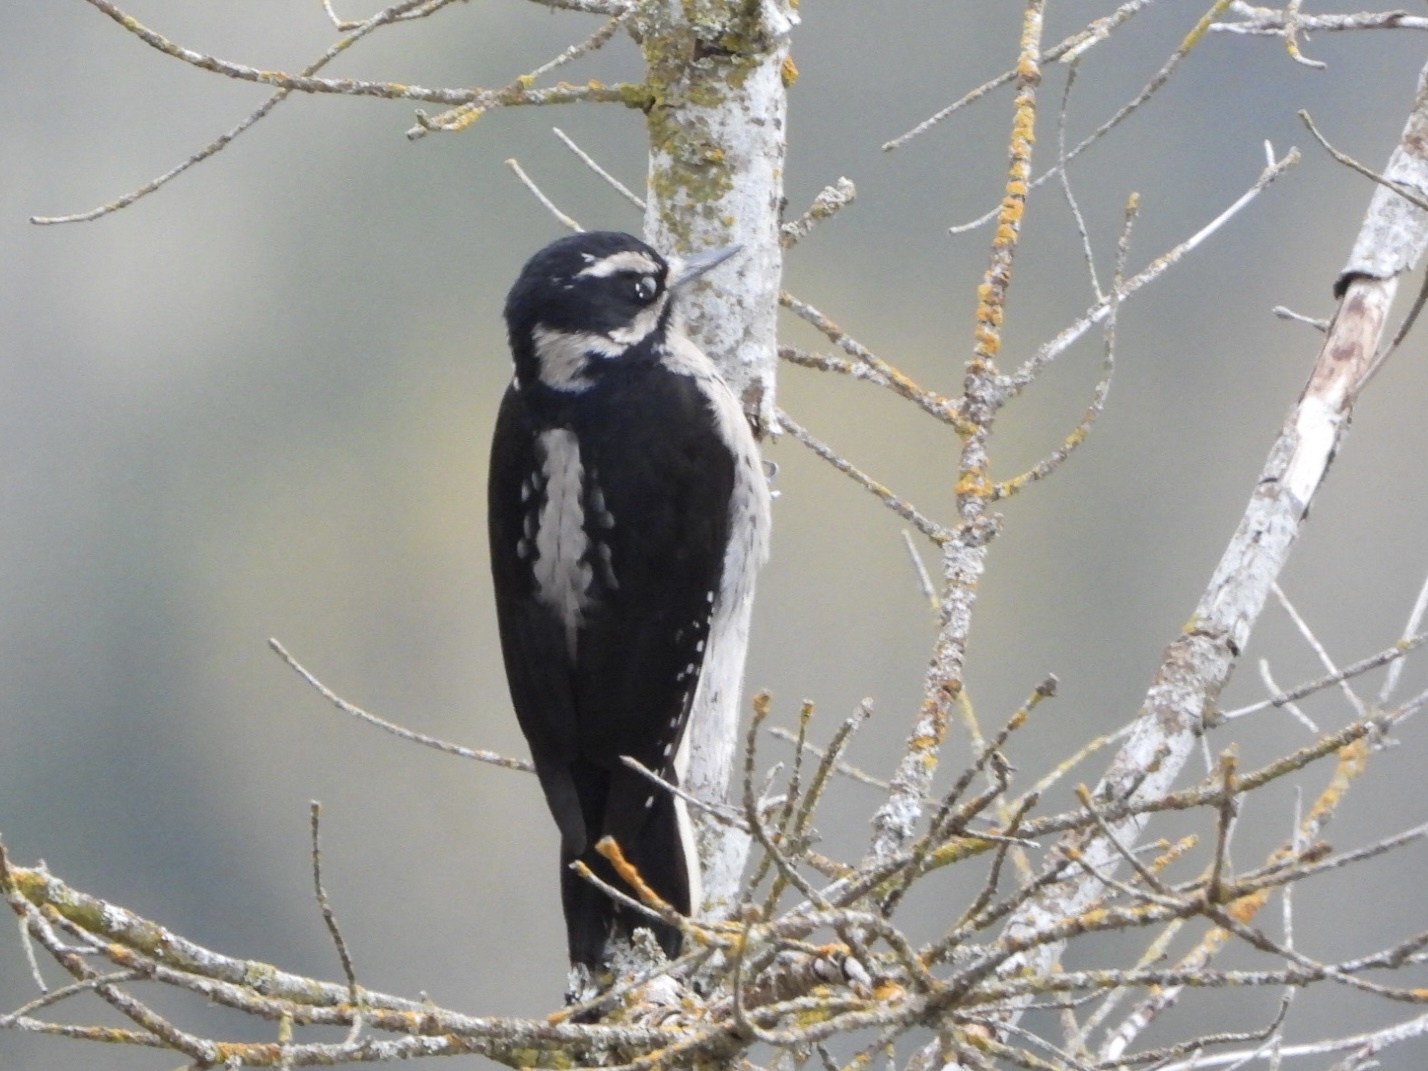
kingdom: Animalia
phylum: Chordata
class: Aves
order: Piciformes
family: Picidae
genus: Leuconotopicus
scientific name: Leuconotopicus villosus
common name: Hairy woodpecker
